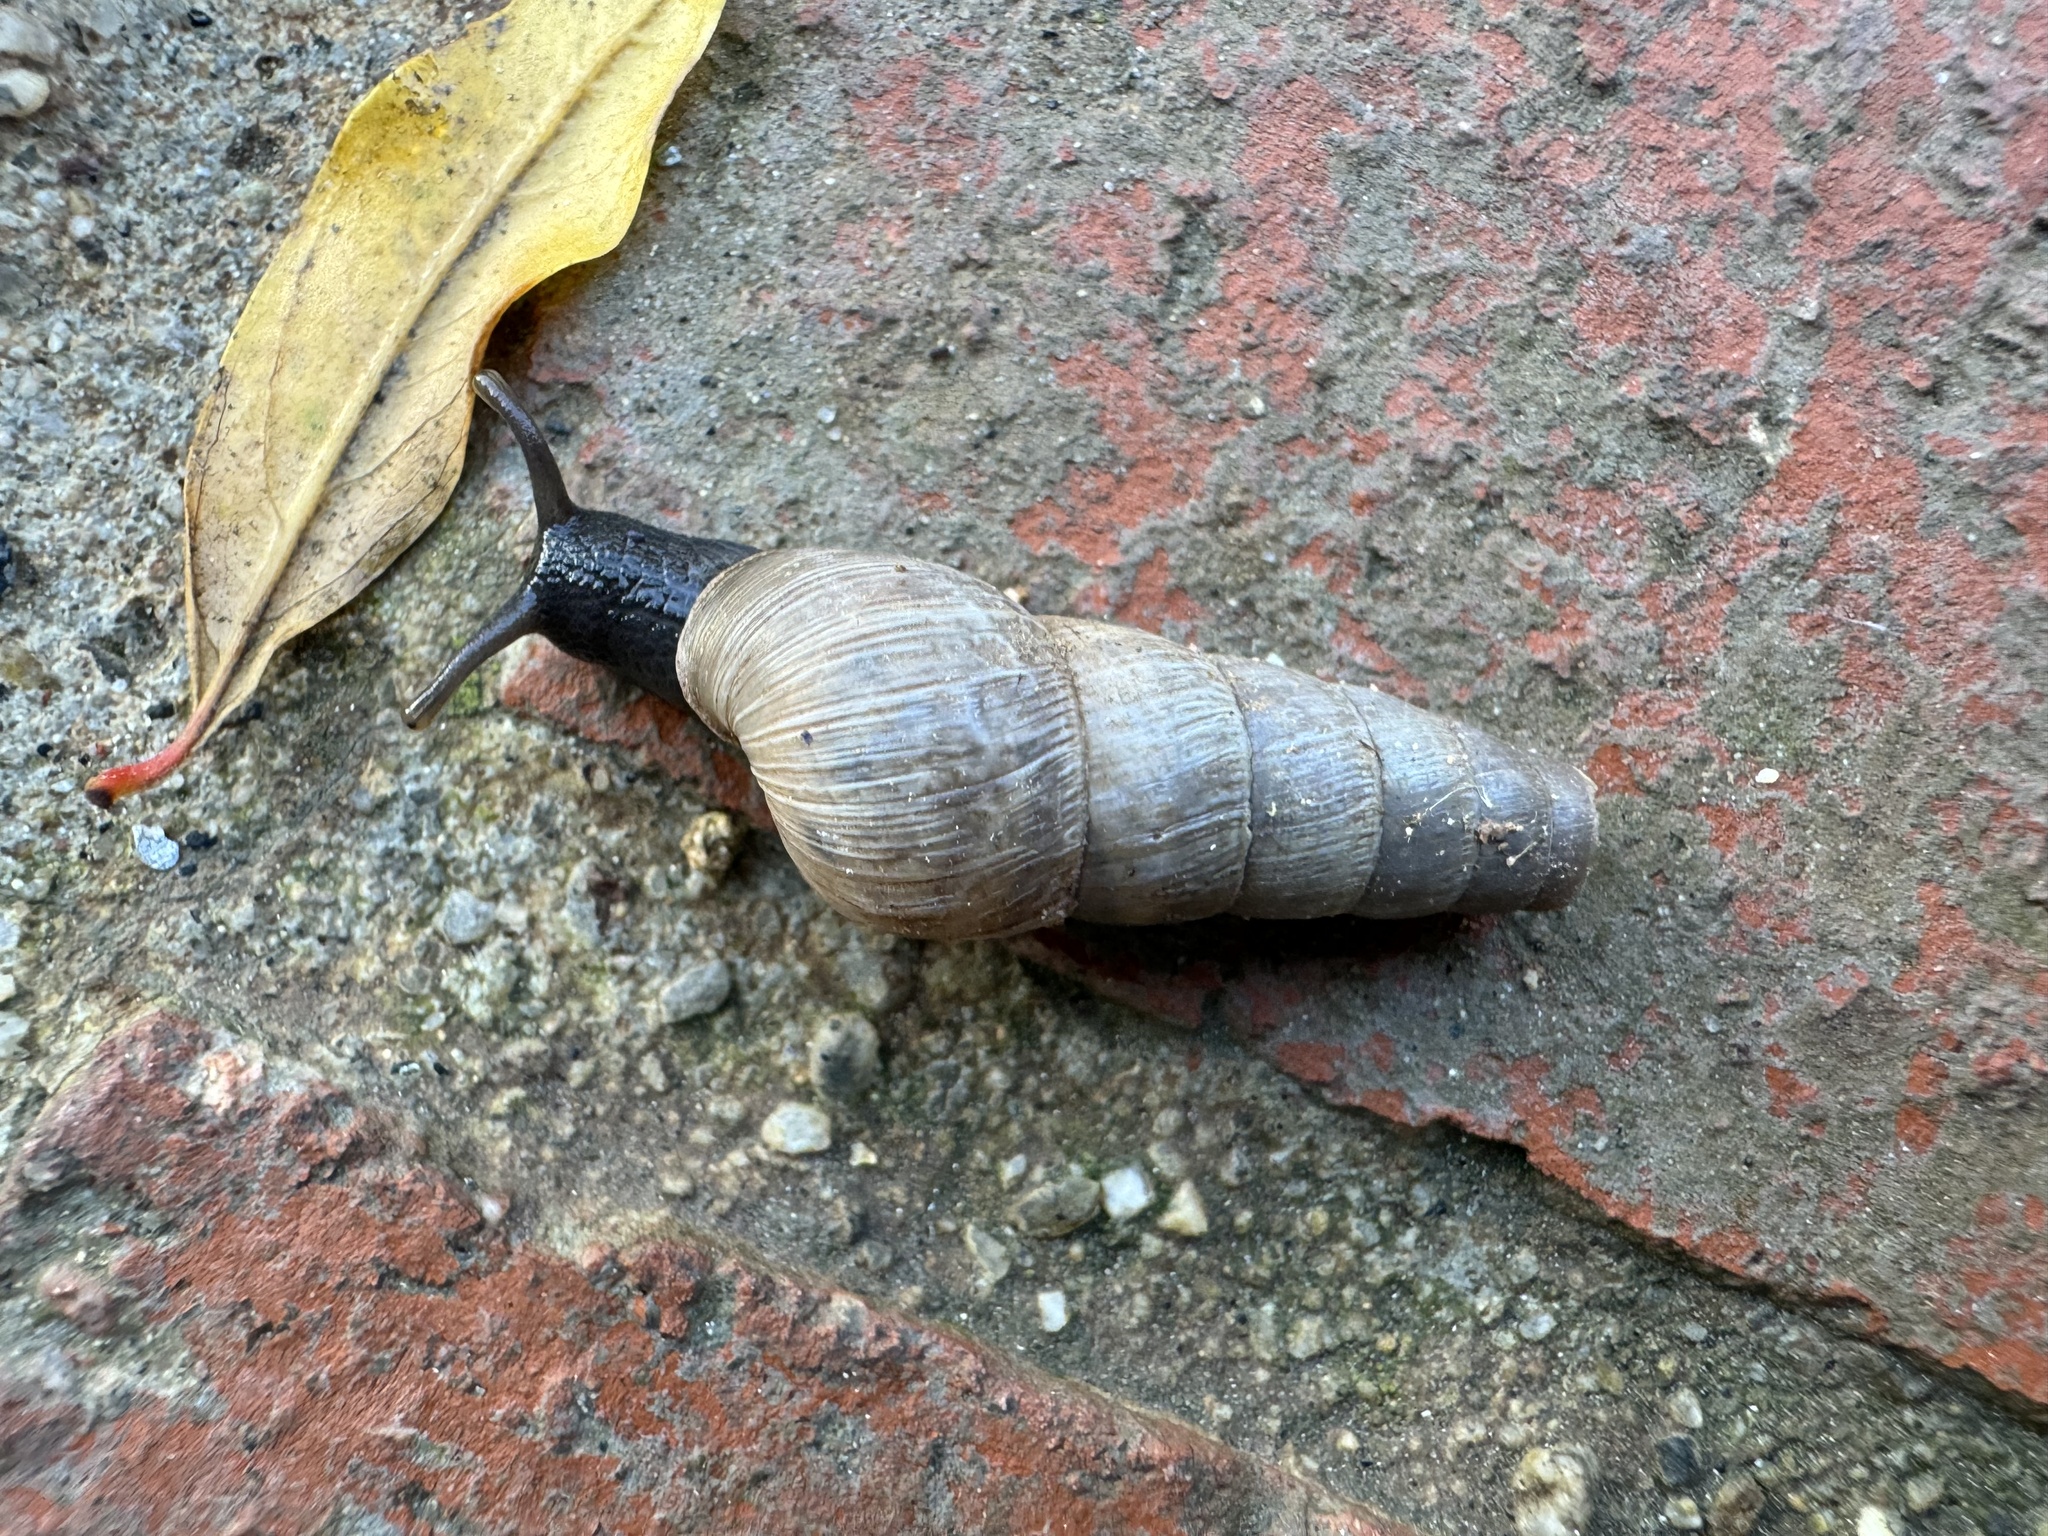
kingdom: Animalia
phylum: Mollusca
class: Gastropoda
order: Stylommatophora
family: Achatinidae
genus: Rumina
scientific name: Rumina decollata
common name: Decollate snail
